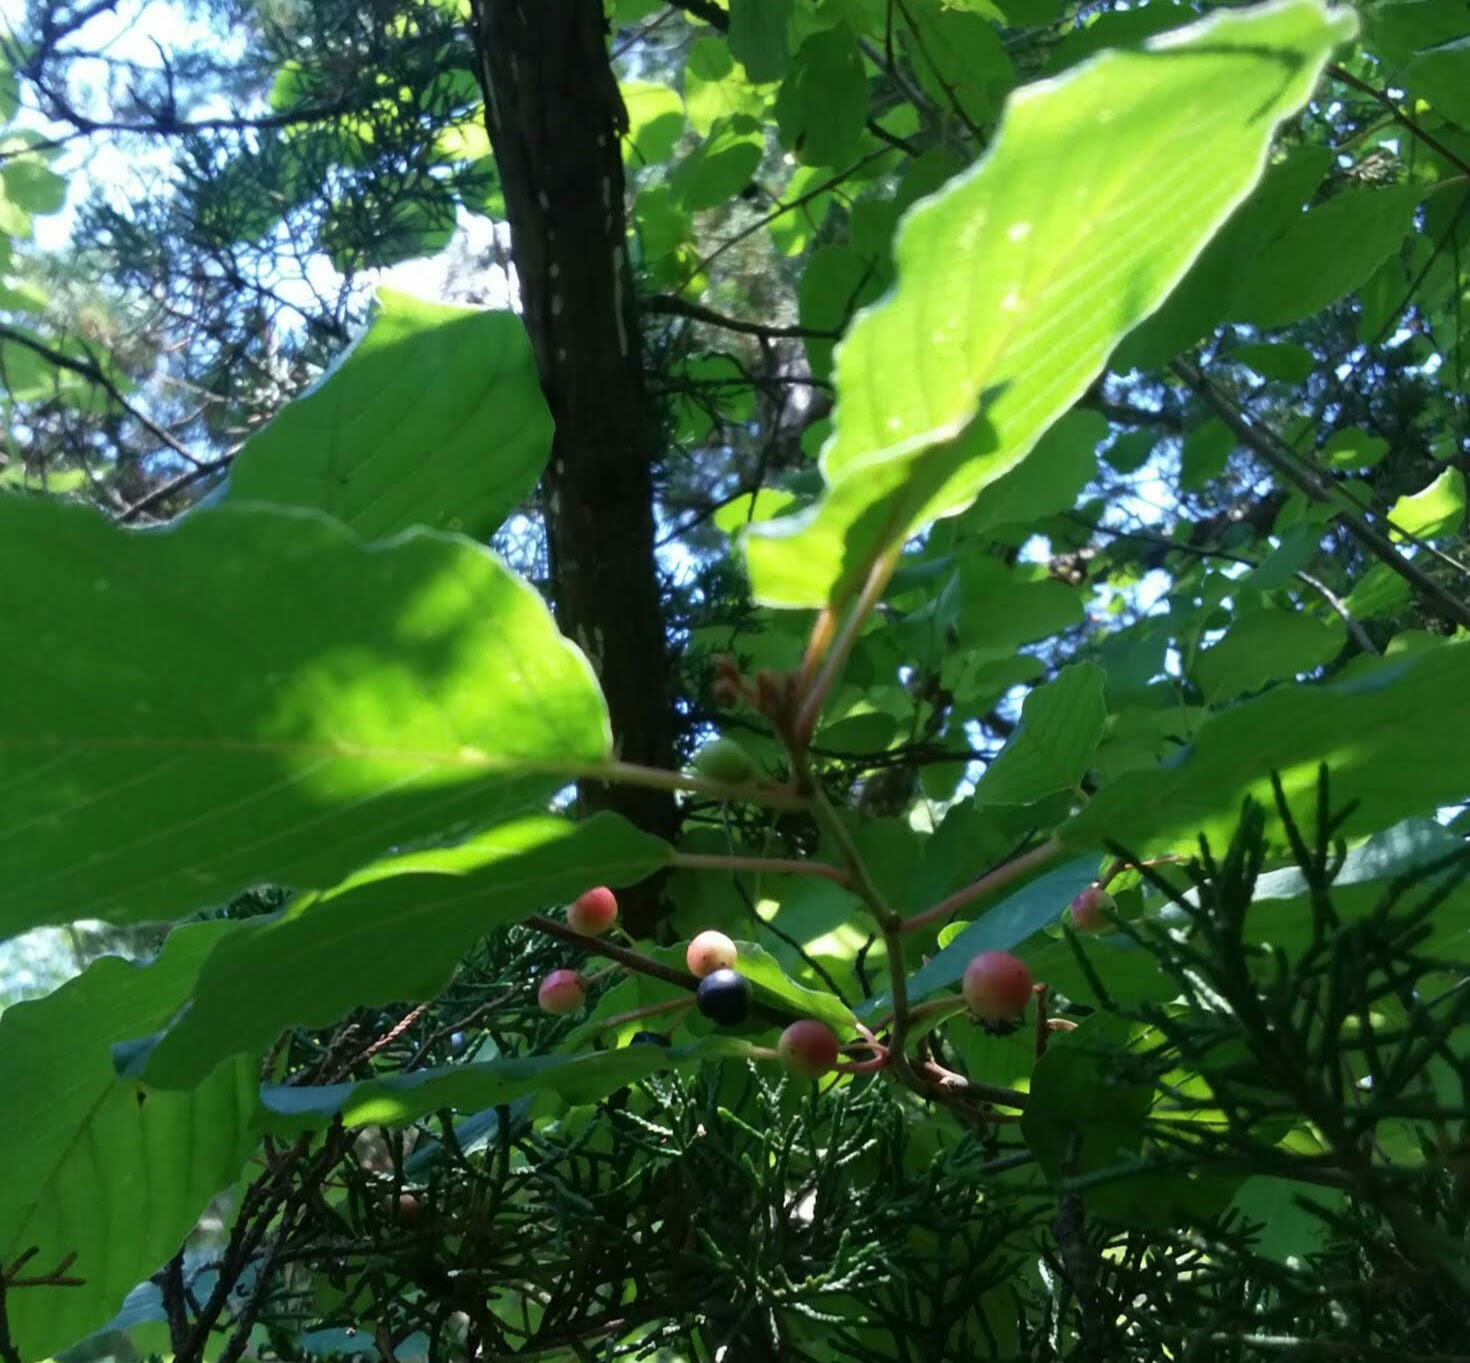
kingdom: Plantae
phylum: Tracheophyta
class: Magnoliopsida
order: Rosales
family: Rhamnaceae
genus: Frangula
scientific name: Frangula alnus
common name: Alder buckthorn
